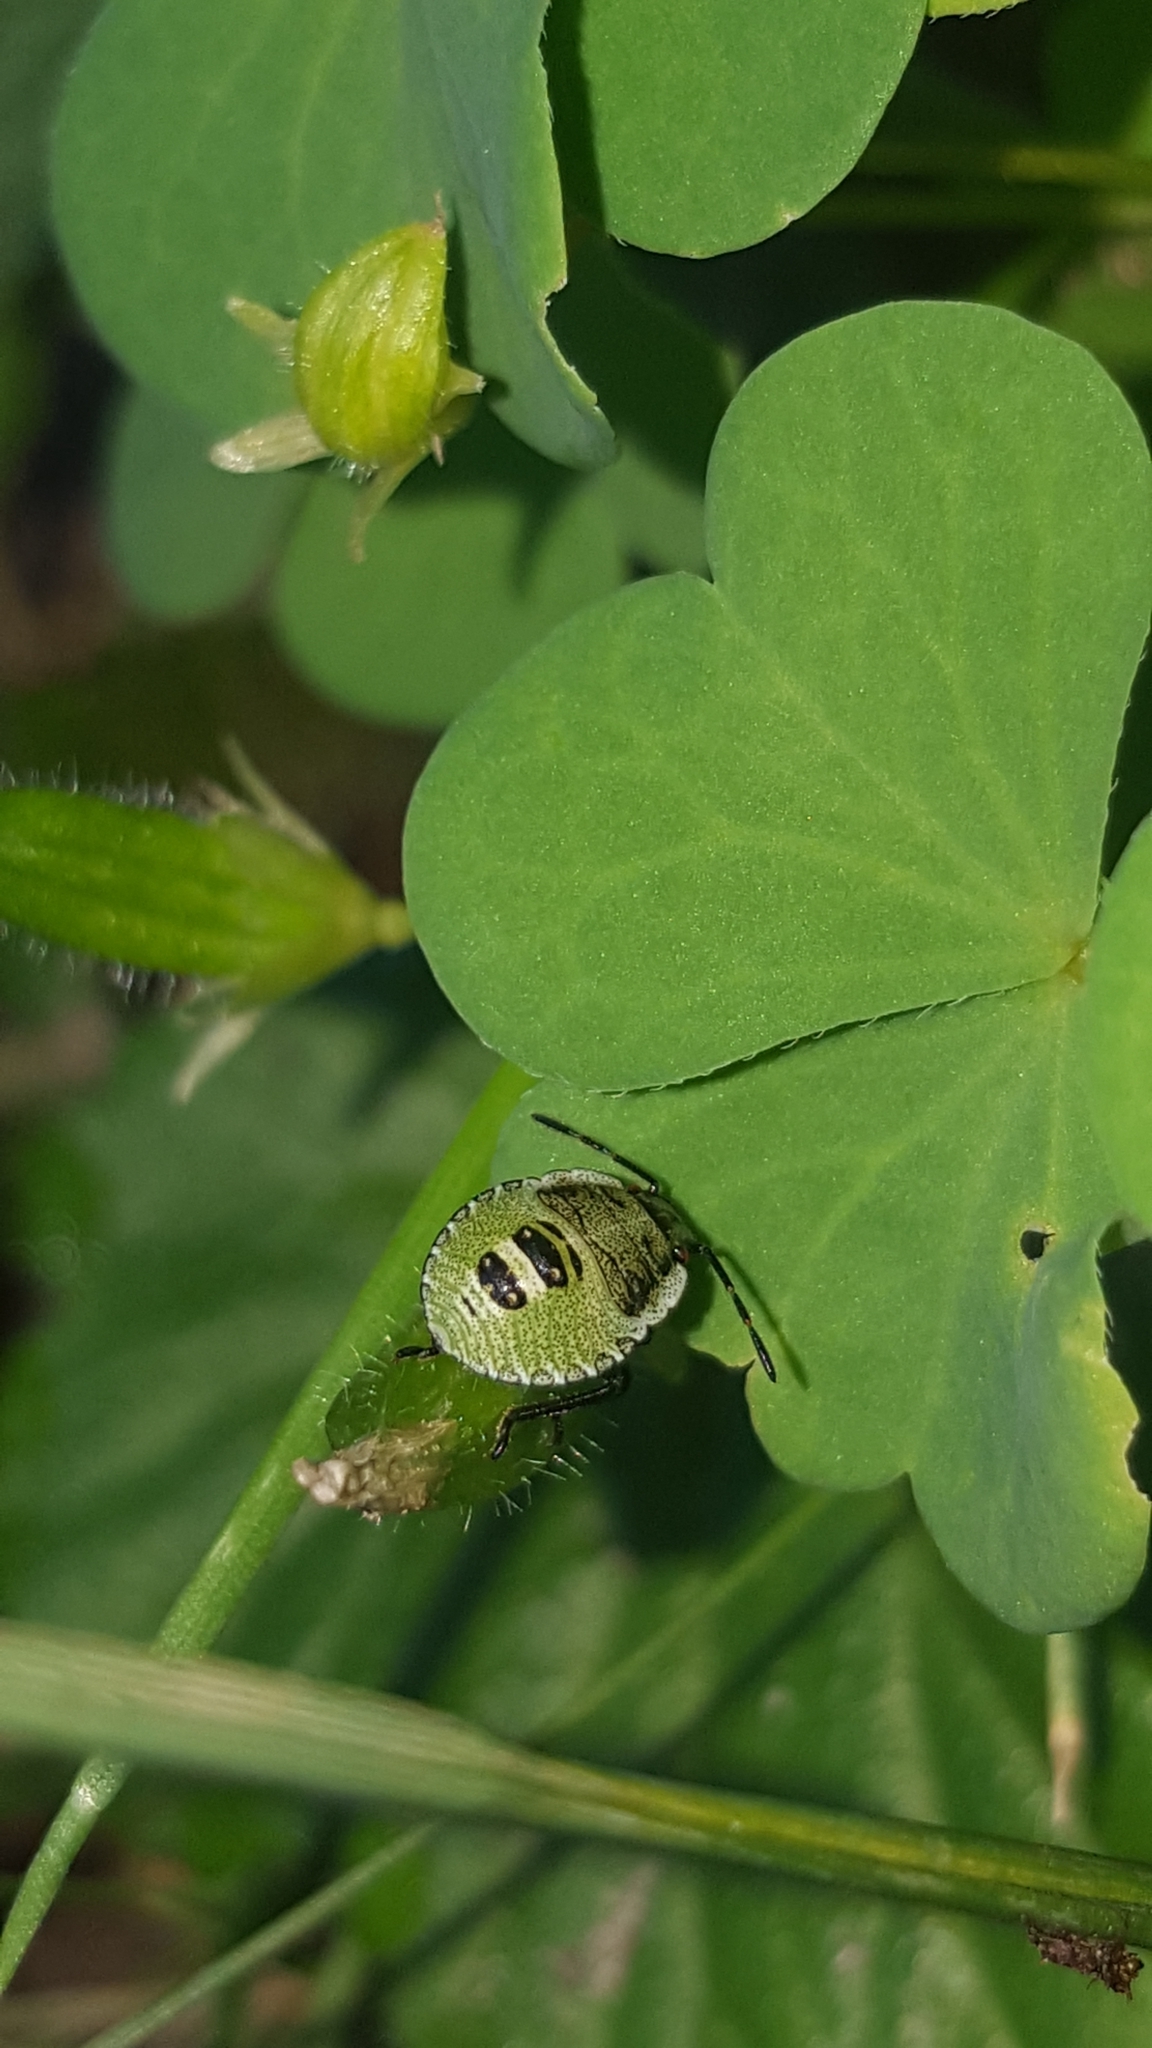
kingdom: Animalia
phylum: Arthropoda
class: Insecta
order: Hemiptera
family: Pentatomidae
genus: Palomena
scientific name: Palomena prasina
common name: Green shieldbug
